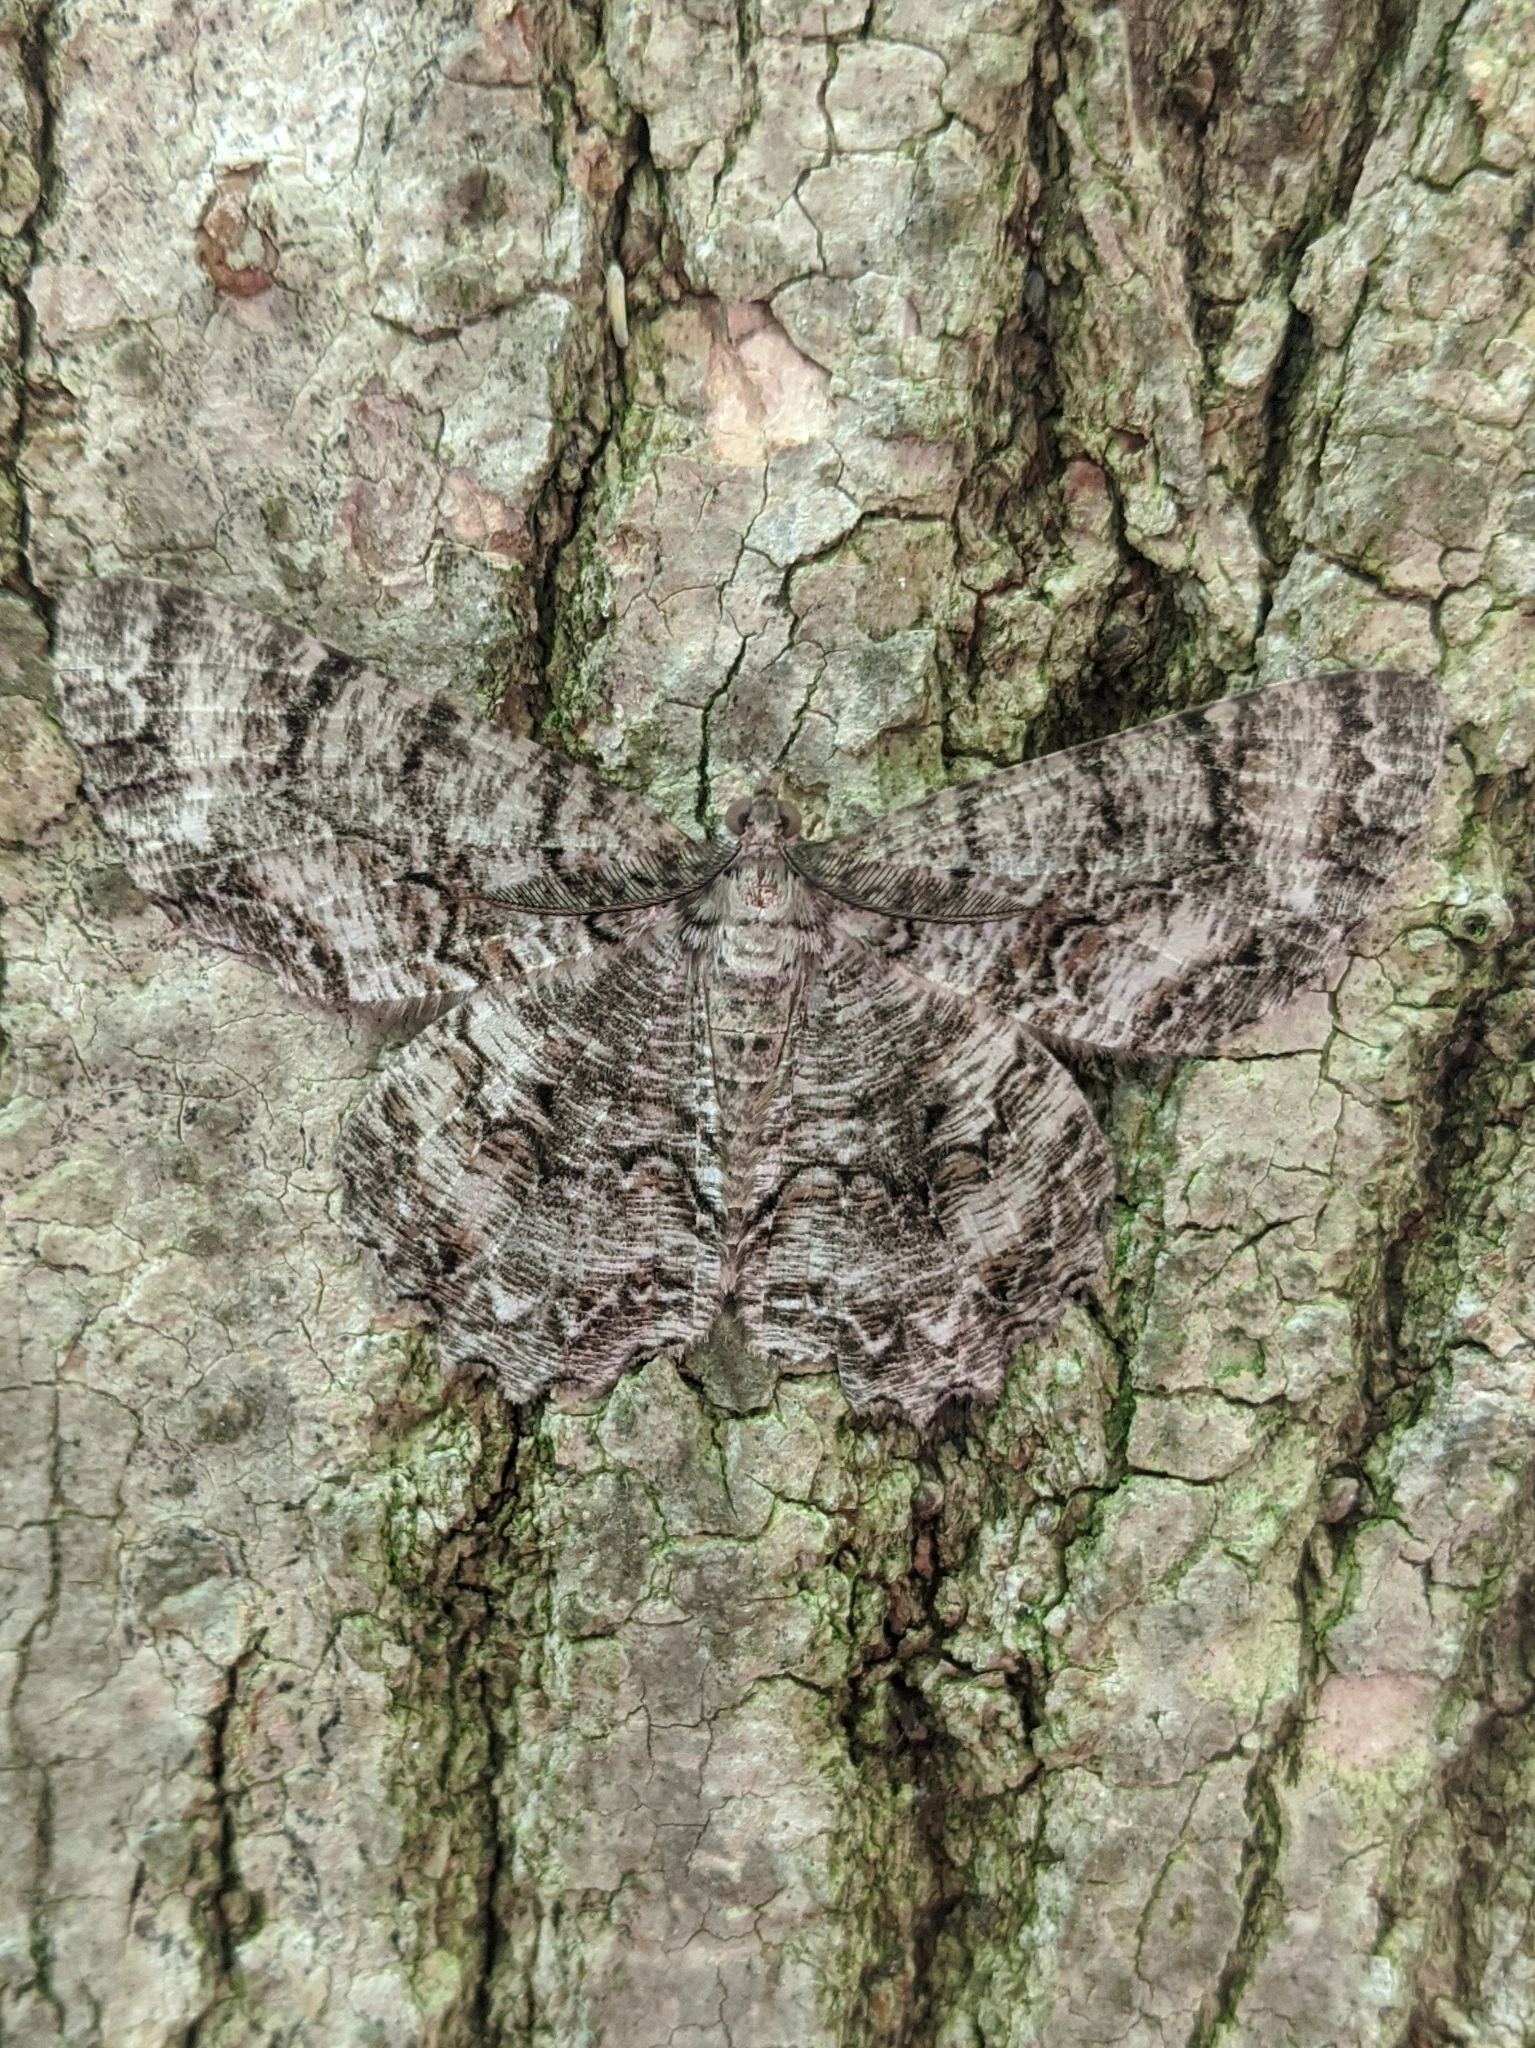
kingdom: Animalia
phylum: Arthropoda
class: Insecta
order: Lepidoptera
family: Geometridae
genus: Epimecis
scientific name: Epimecis hortaria
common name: Tulip-tree beauty
